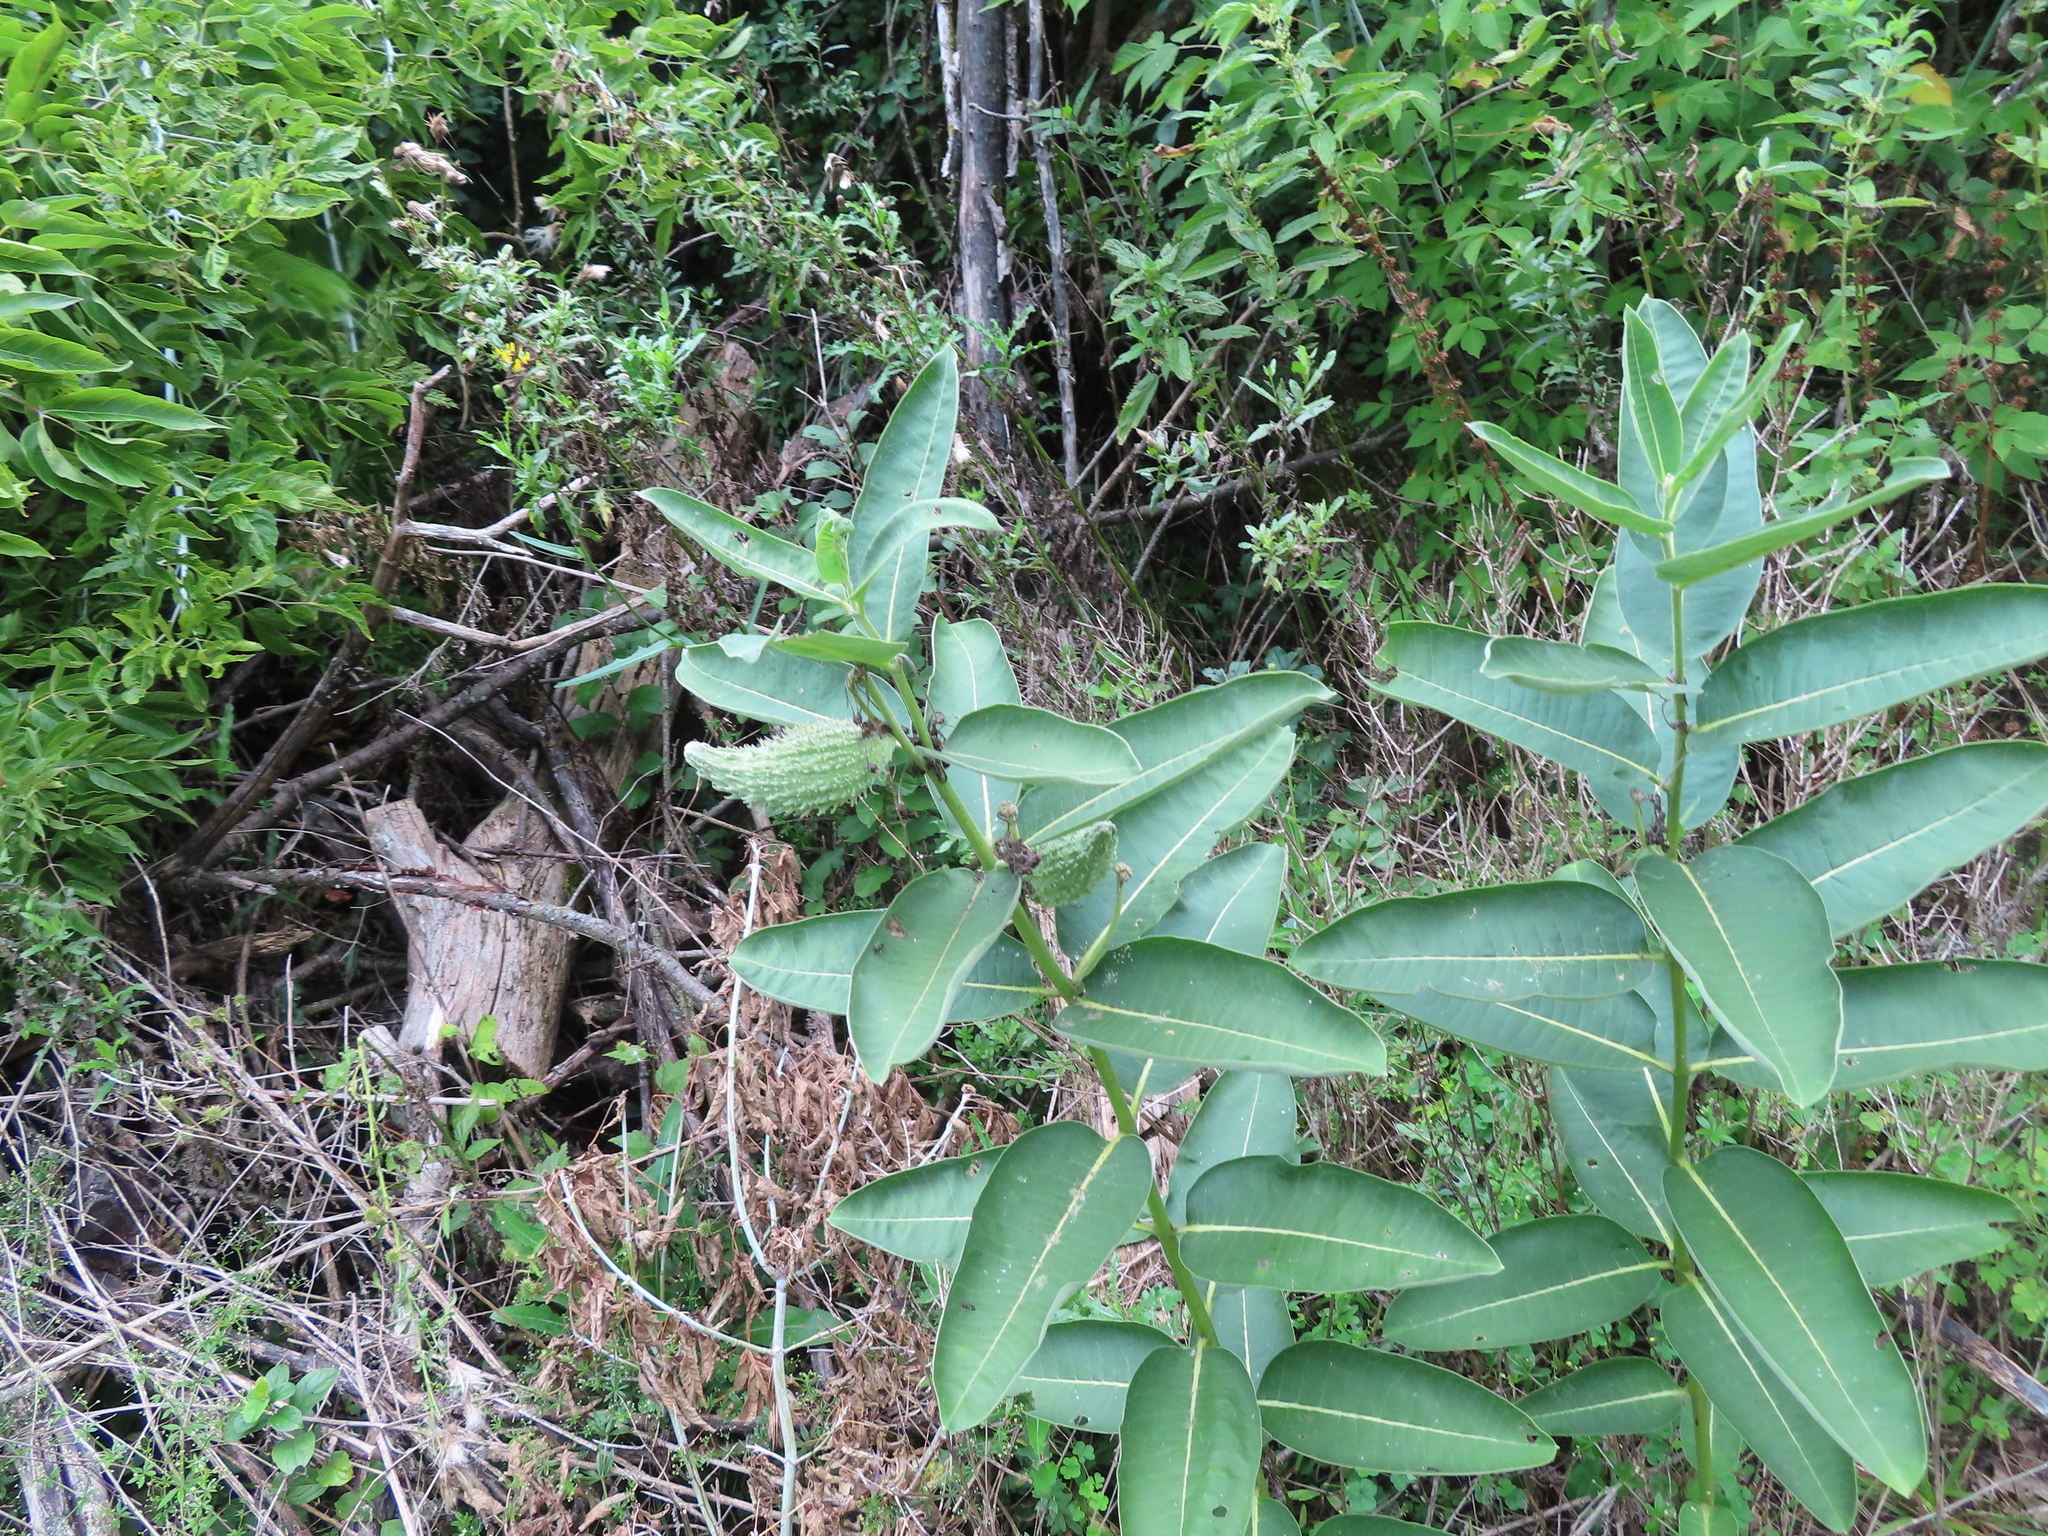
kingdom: Plantae
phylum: Tracheophyta
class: Magnoliopsida
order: Gentianales
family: Apocynaceae
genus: Asclepias
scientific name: Asclepias syriaca
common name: Common milkweed
